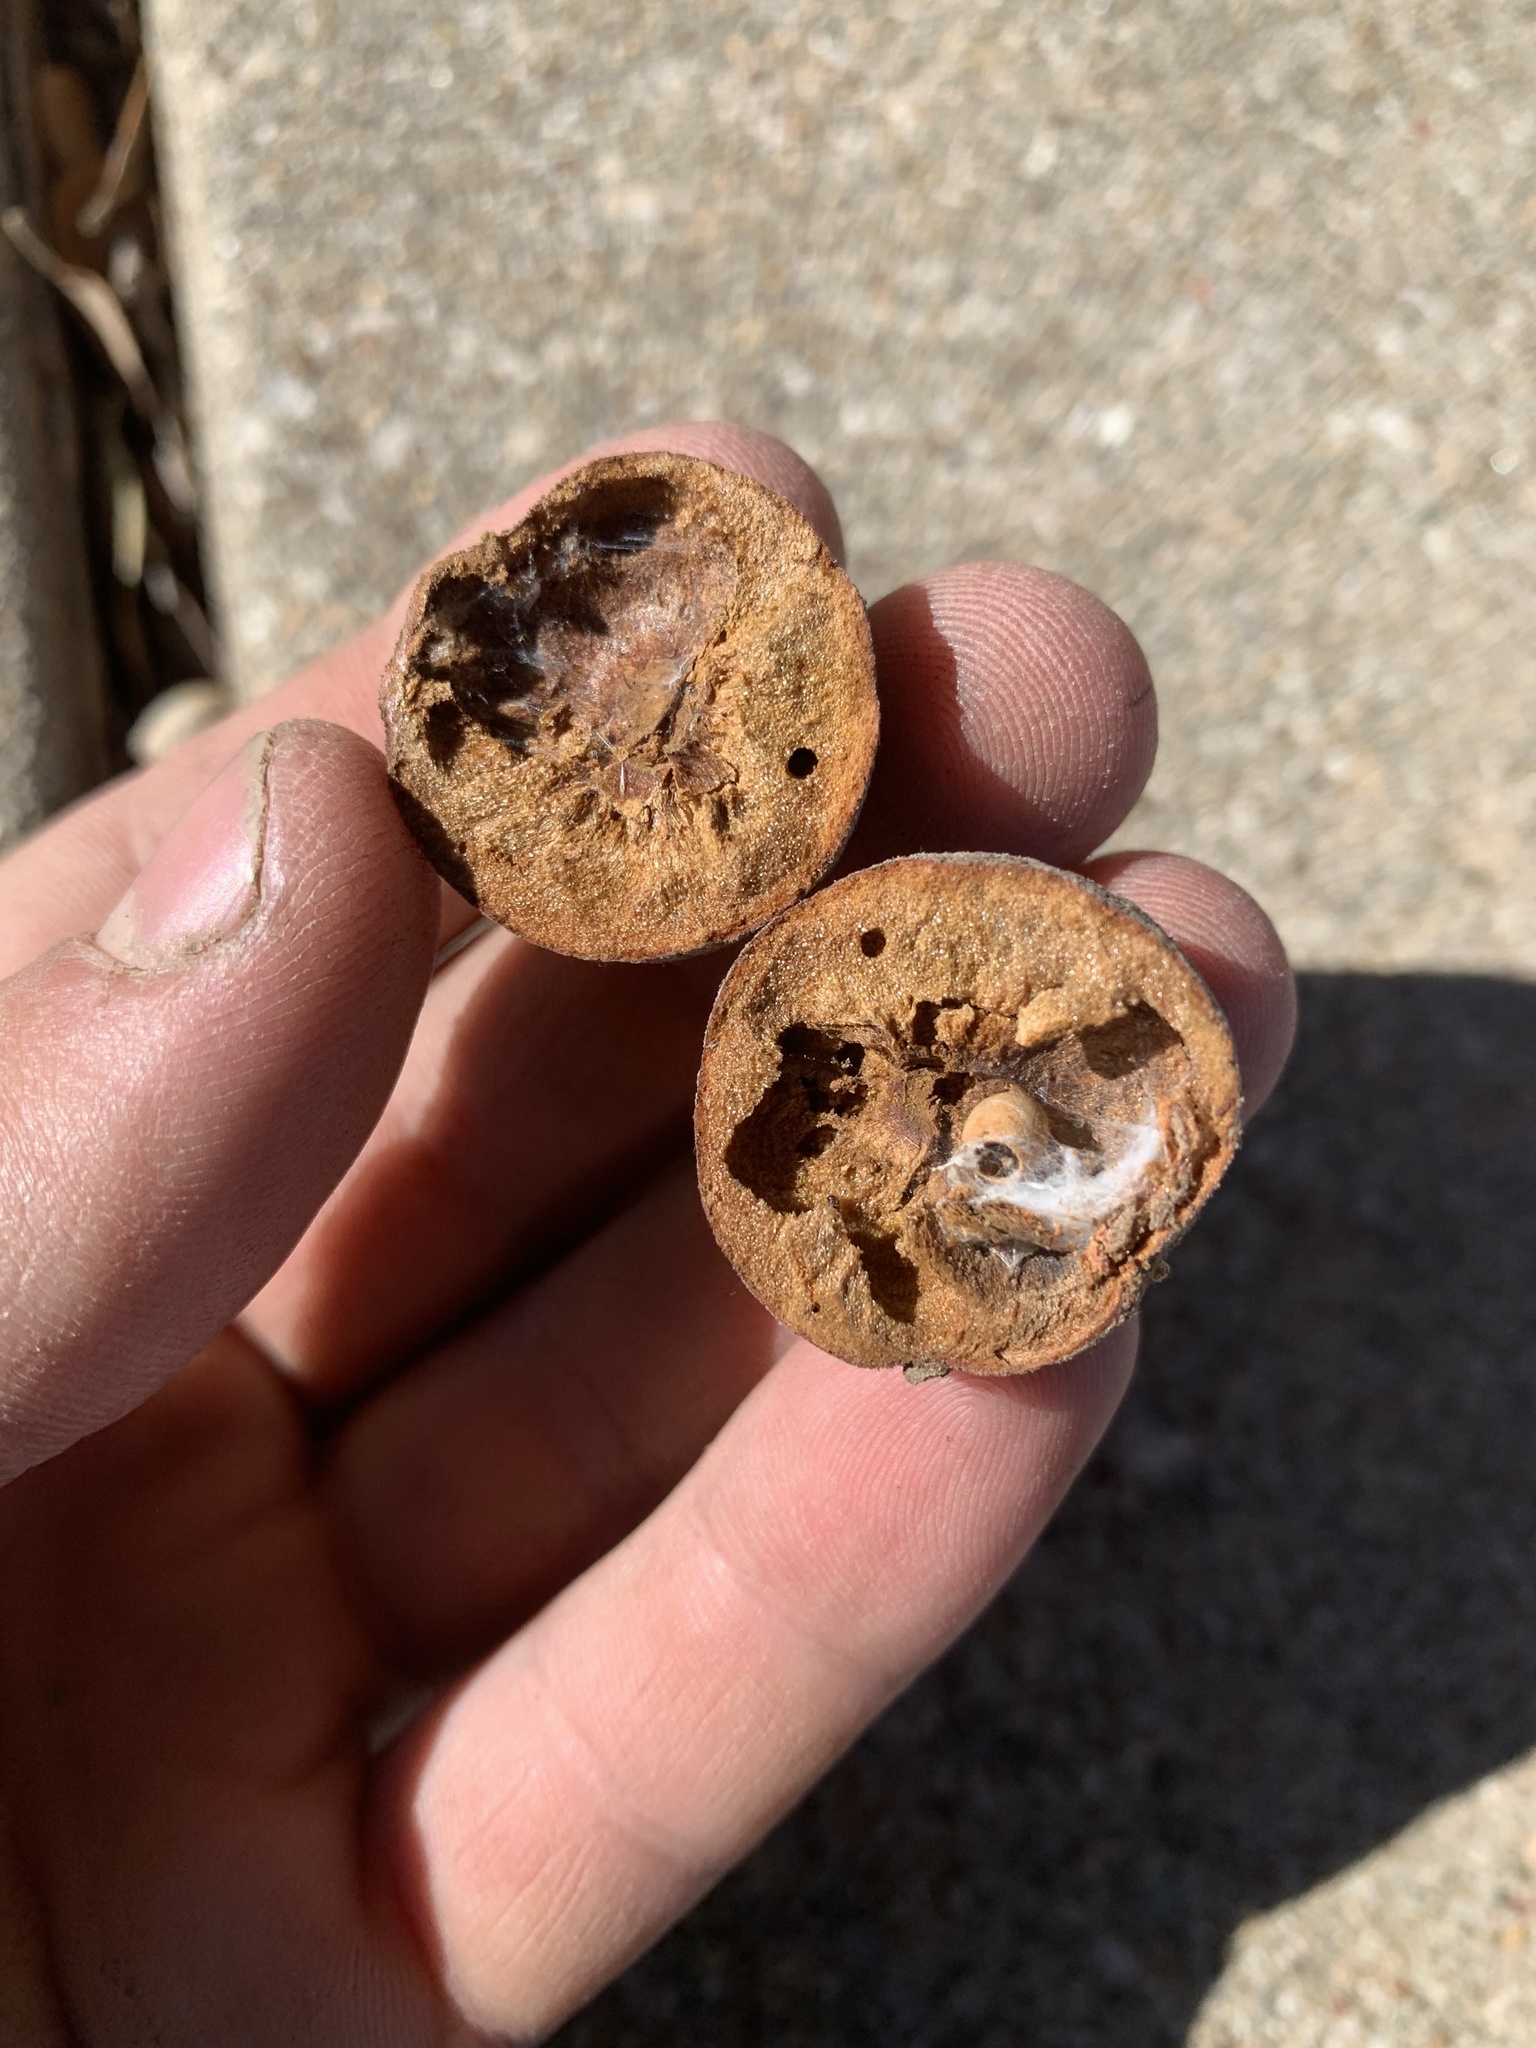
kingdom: Animalia
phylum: Arthropoda
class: Insecta
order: Hymenoptera
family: Cynipidae
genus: Disholcaspis
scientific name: Disholcaspis
